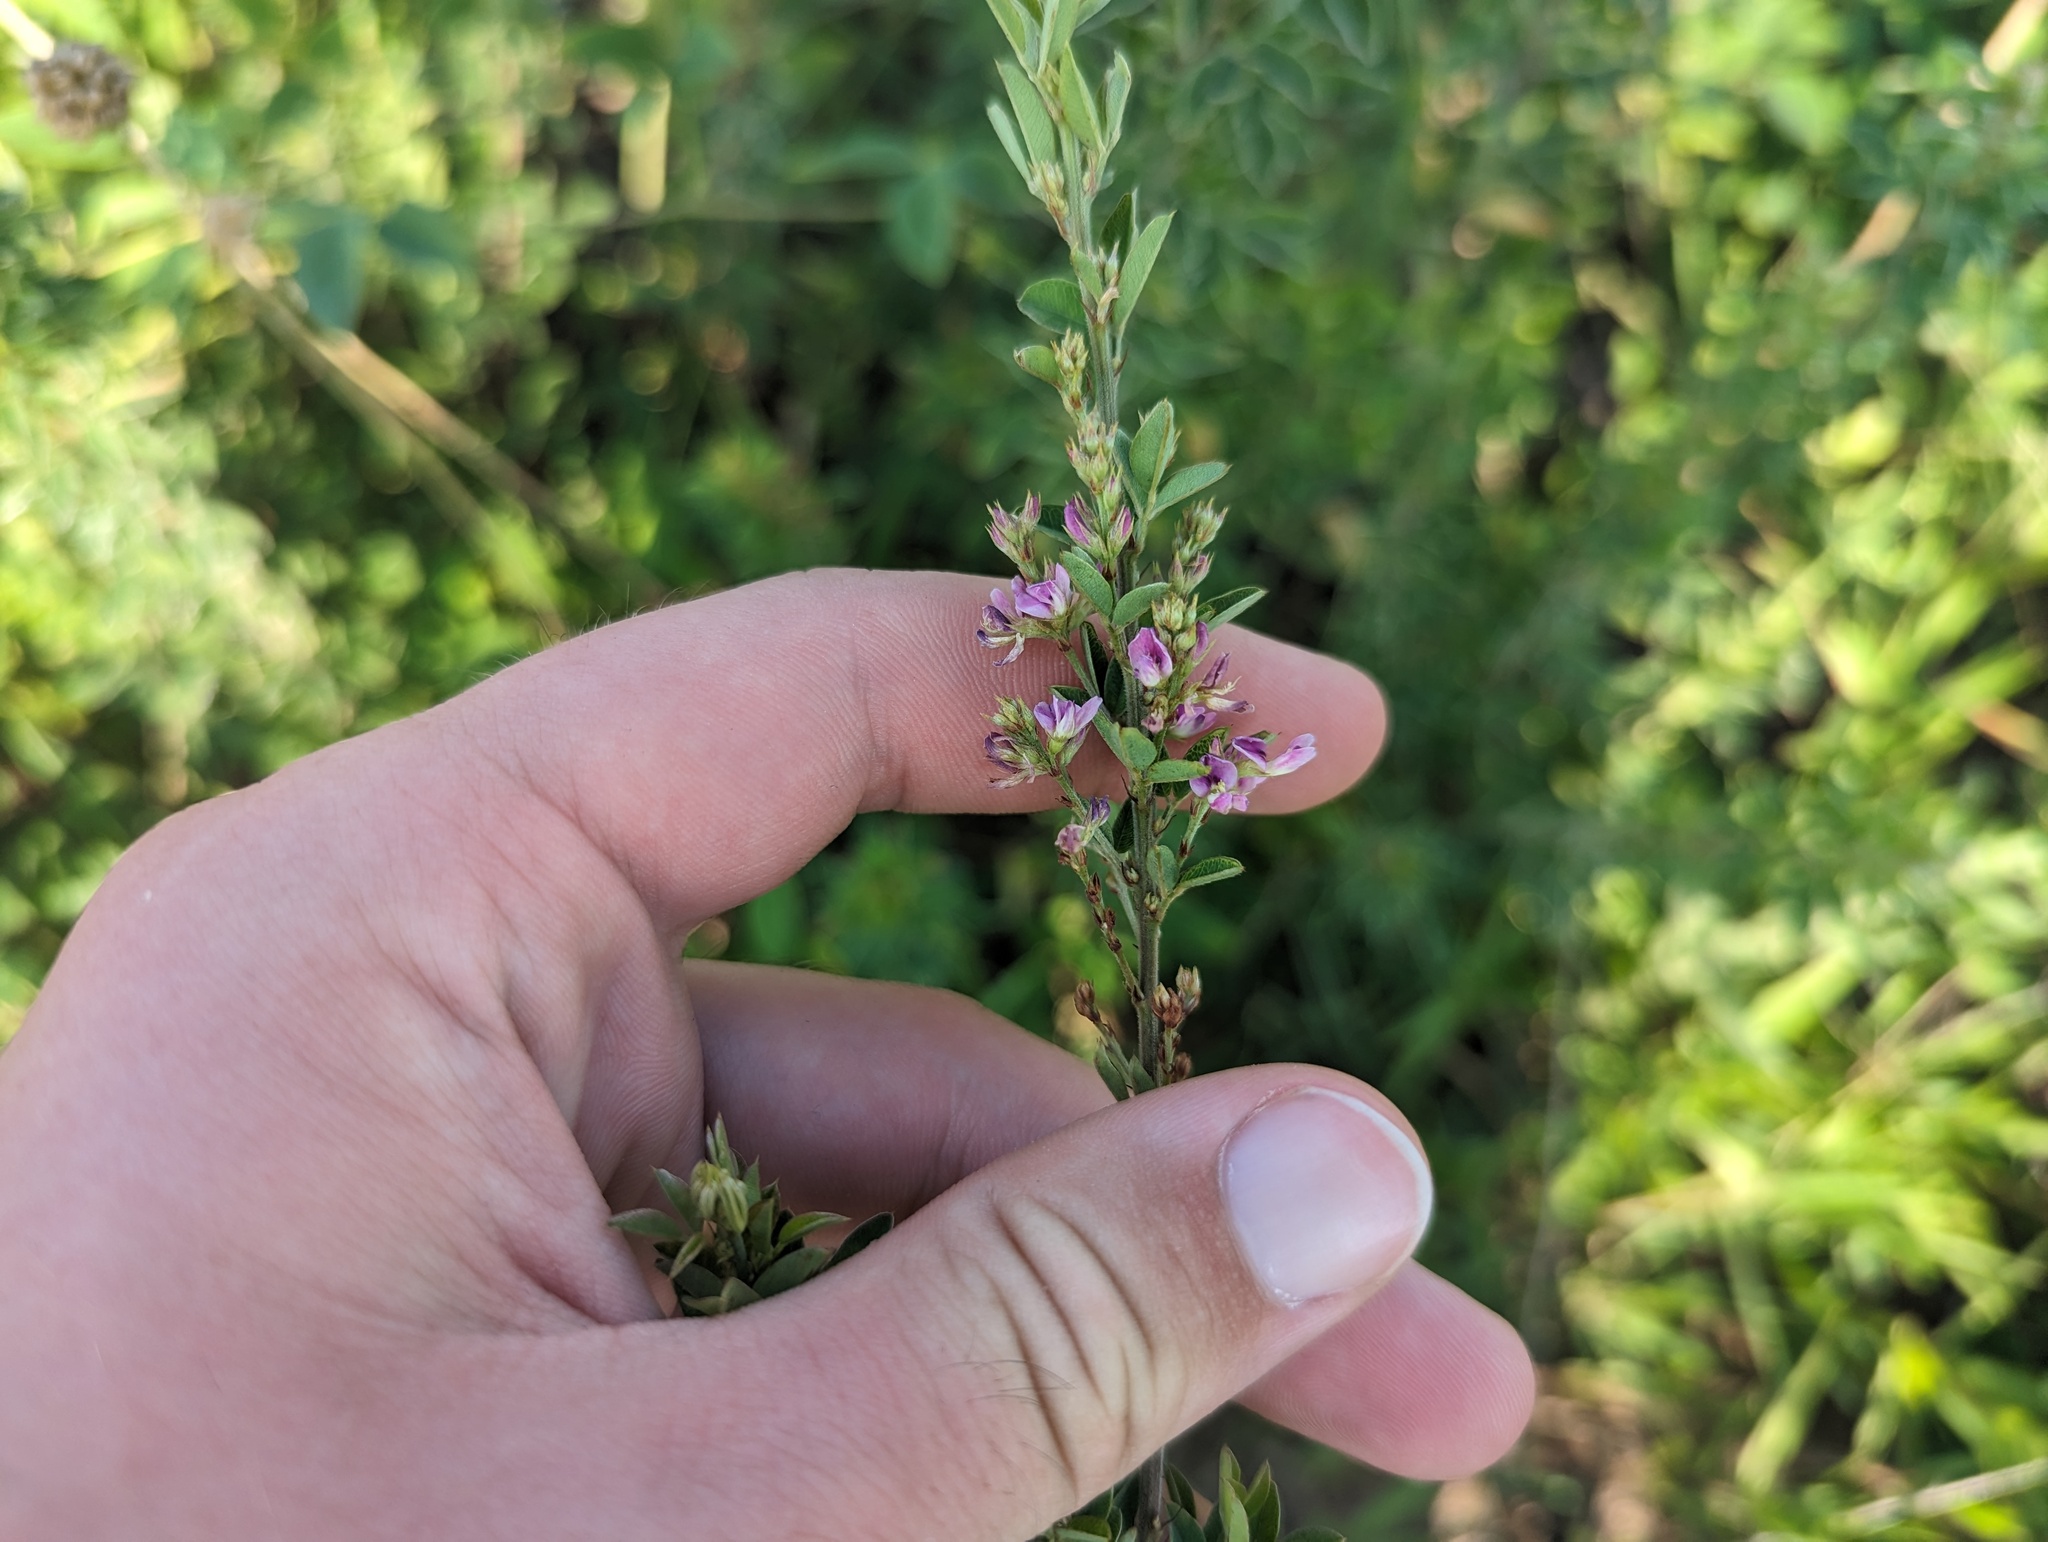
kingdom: Plantae
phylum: Tracheophyta
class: Magnoliopsida
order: Fabales
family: Fabaceae
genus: Lespedeza
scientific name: Lespedeza stuevei
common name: Tall bush-clover
